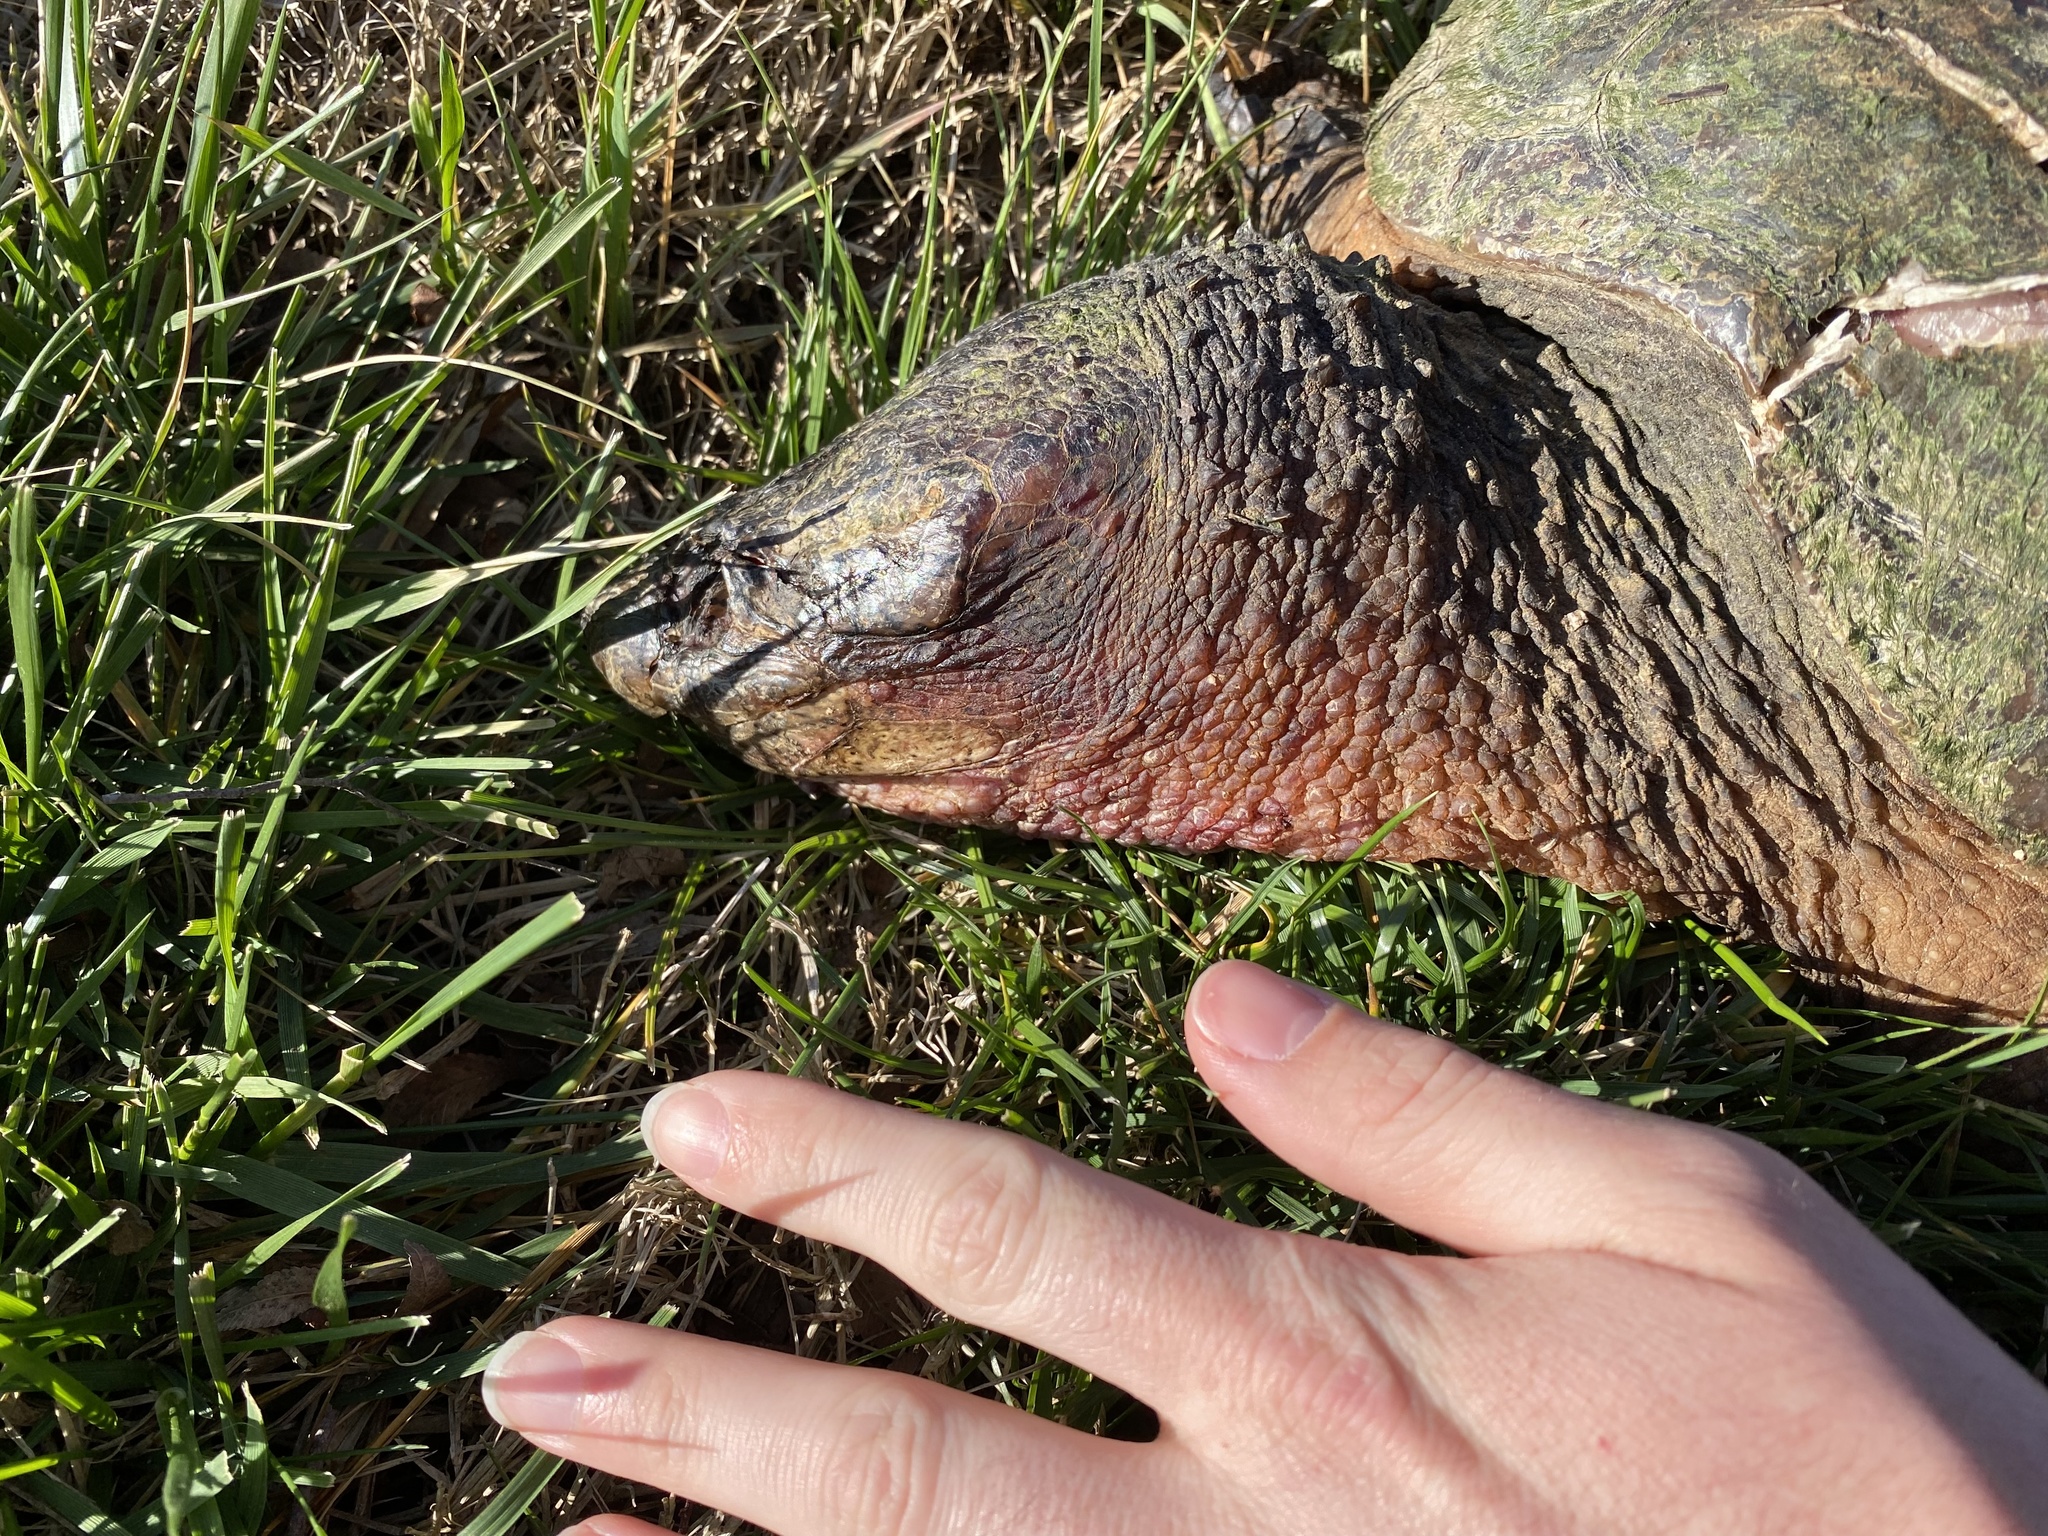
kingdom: Animalia
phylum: Chordata
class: Testudines
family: Chelydridae
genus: Chelydra
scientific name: Chelydra serpentina
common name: Common snapping turtle
